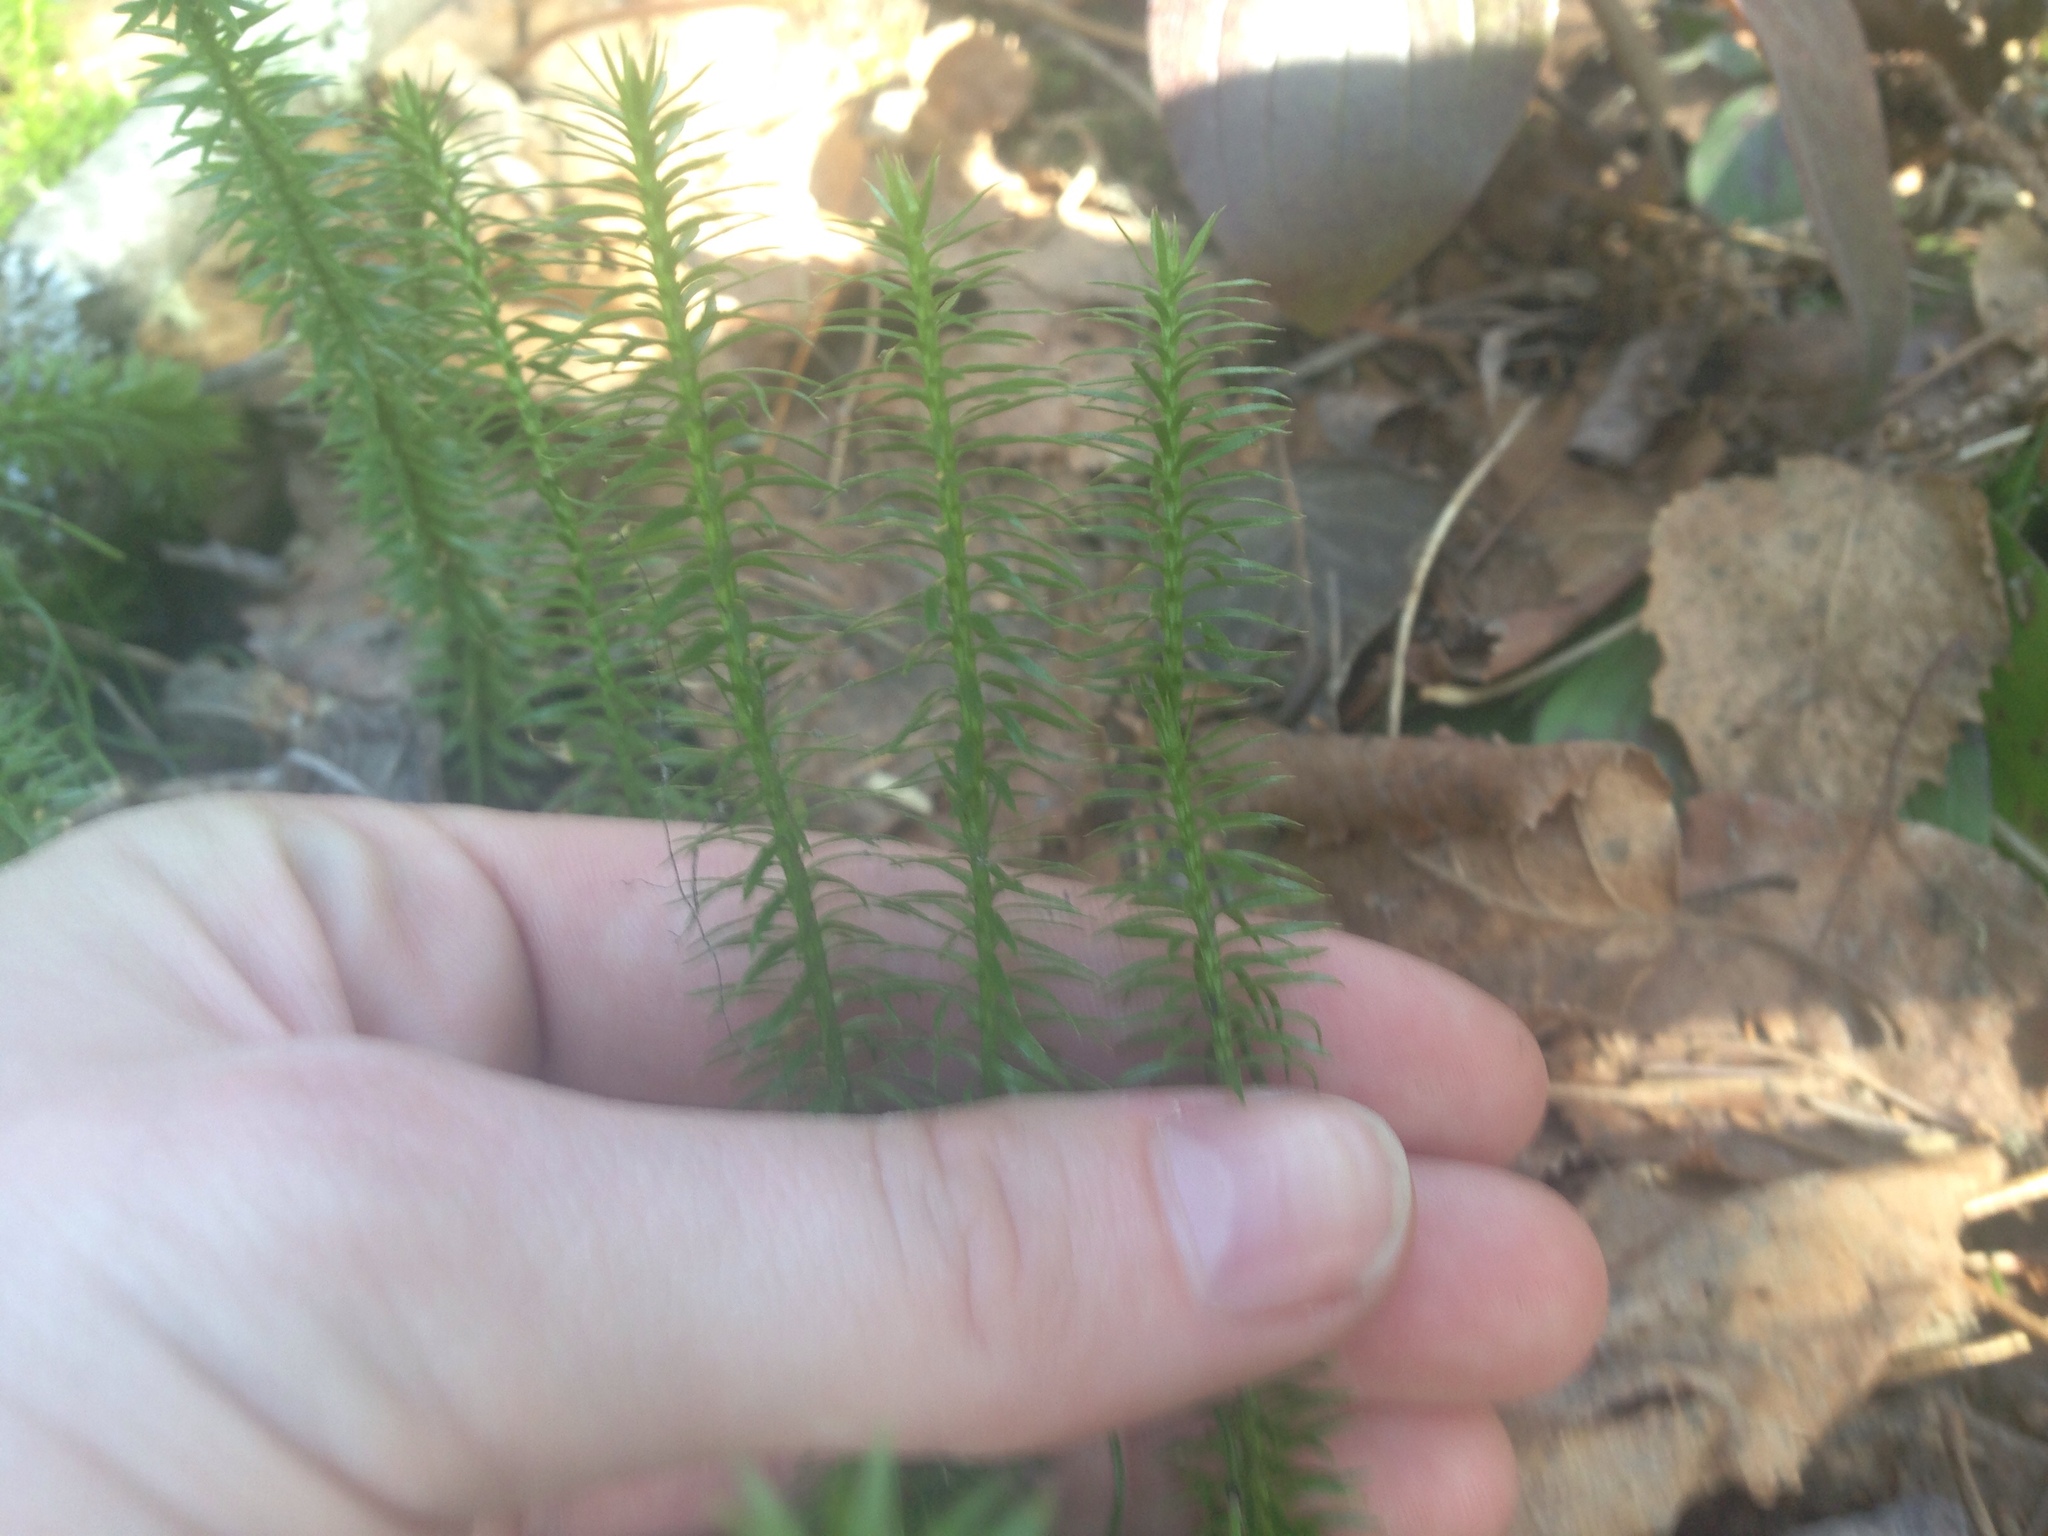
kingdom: Plantae
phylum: Tracheophyta
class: Lycopodiopsida
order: Lycopodiales
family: Lycopodiaceae
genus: Spinulum
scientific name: Spinulum annotinum
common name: Interrupted club-moss
